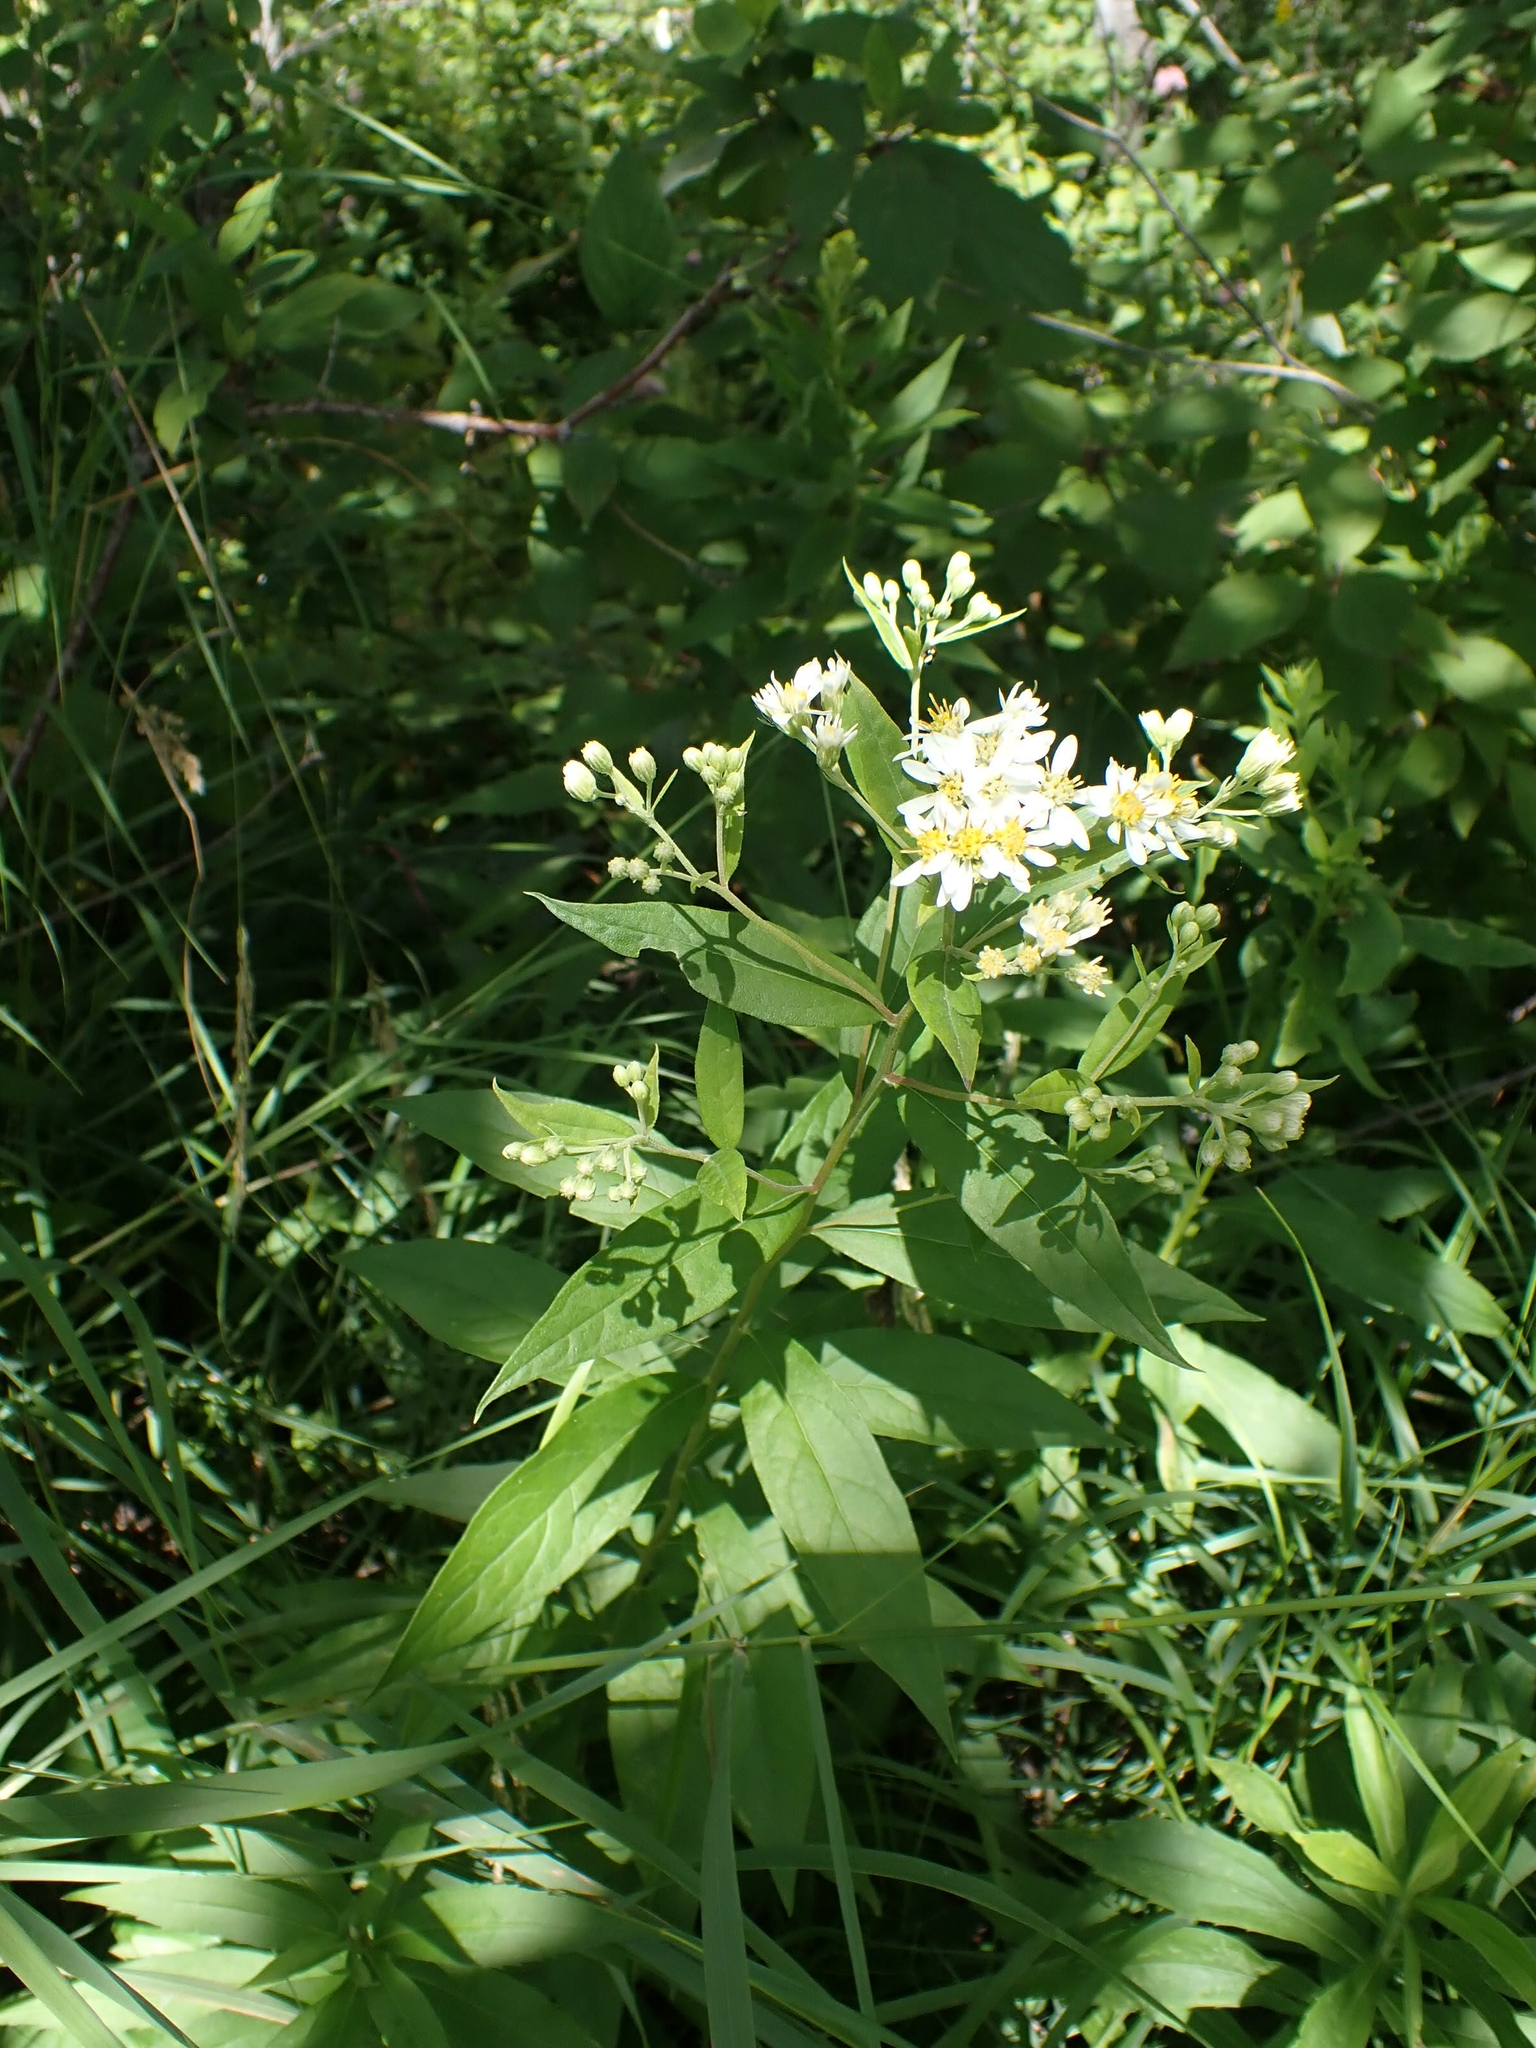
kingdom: Plantae
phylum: Tracheophyta
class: Magnoliopsida
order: Asterales
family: Asteraceae
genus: Doellingeria
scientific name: Doellingeria umbellata
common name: Flat-top white aster
